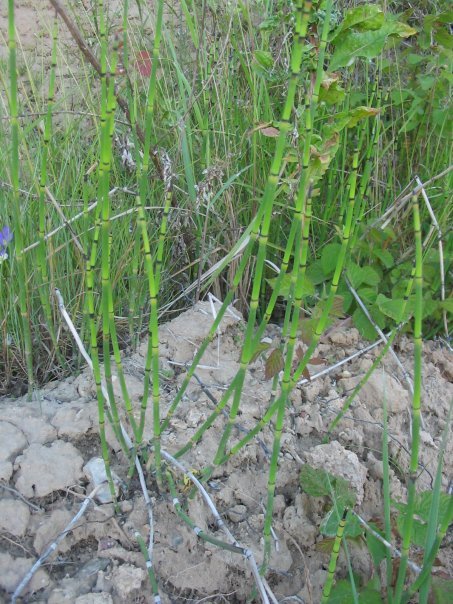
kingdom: Plantae
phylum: Tracheophyta
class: Polypodiopsida
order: Equisetales
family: Equisetaceae
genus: Equisetum
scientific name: Equisetum hyemale
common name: Rough horsetail
